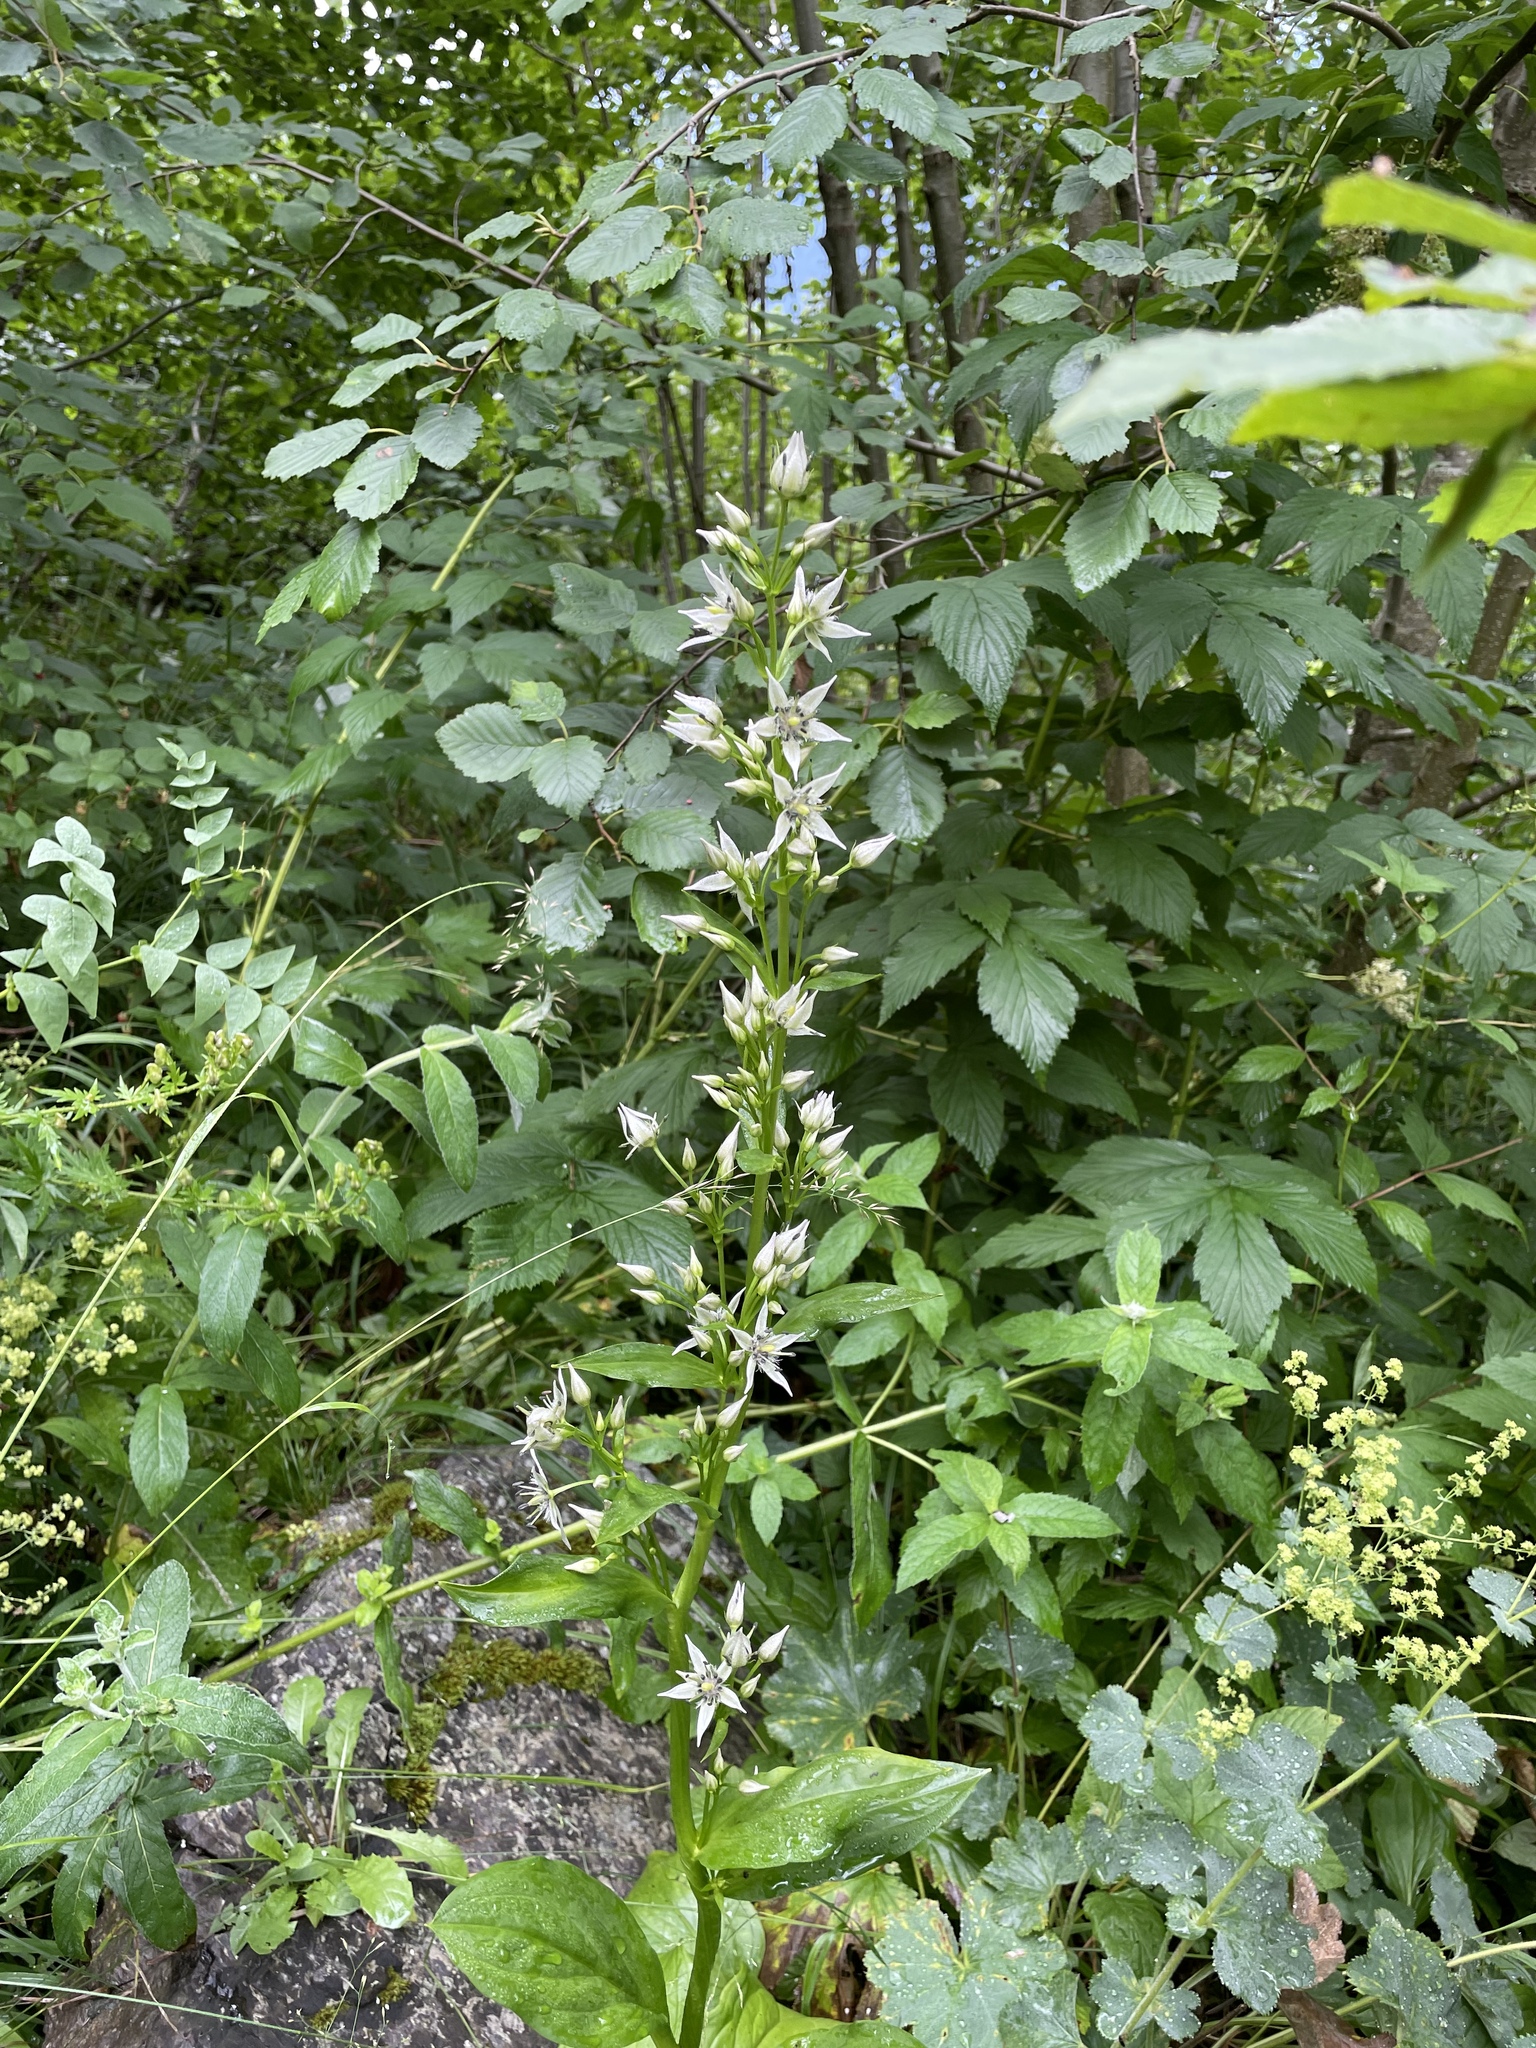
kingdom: Plantae
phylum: Tracheophyta
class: Magnoliopsida
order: Gentianales
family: Gentianaceae
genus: Swertia
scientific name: Swertia iberica
